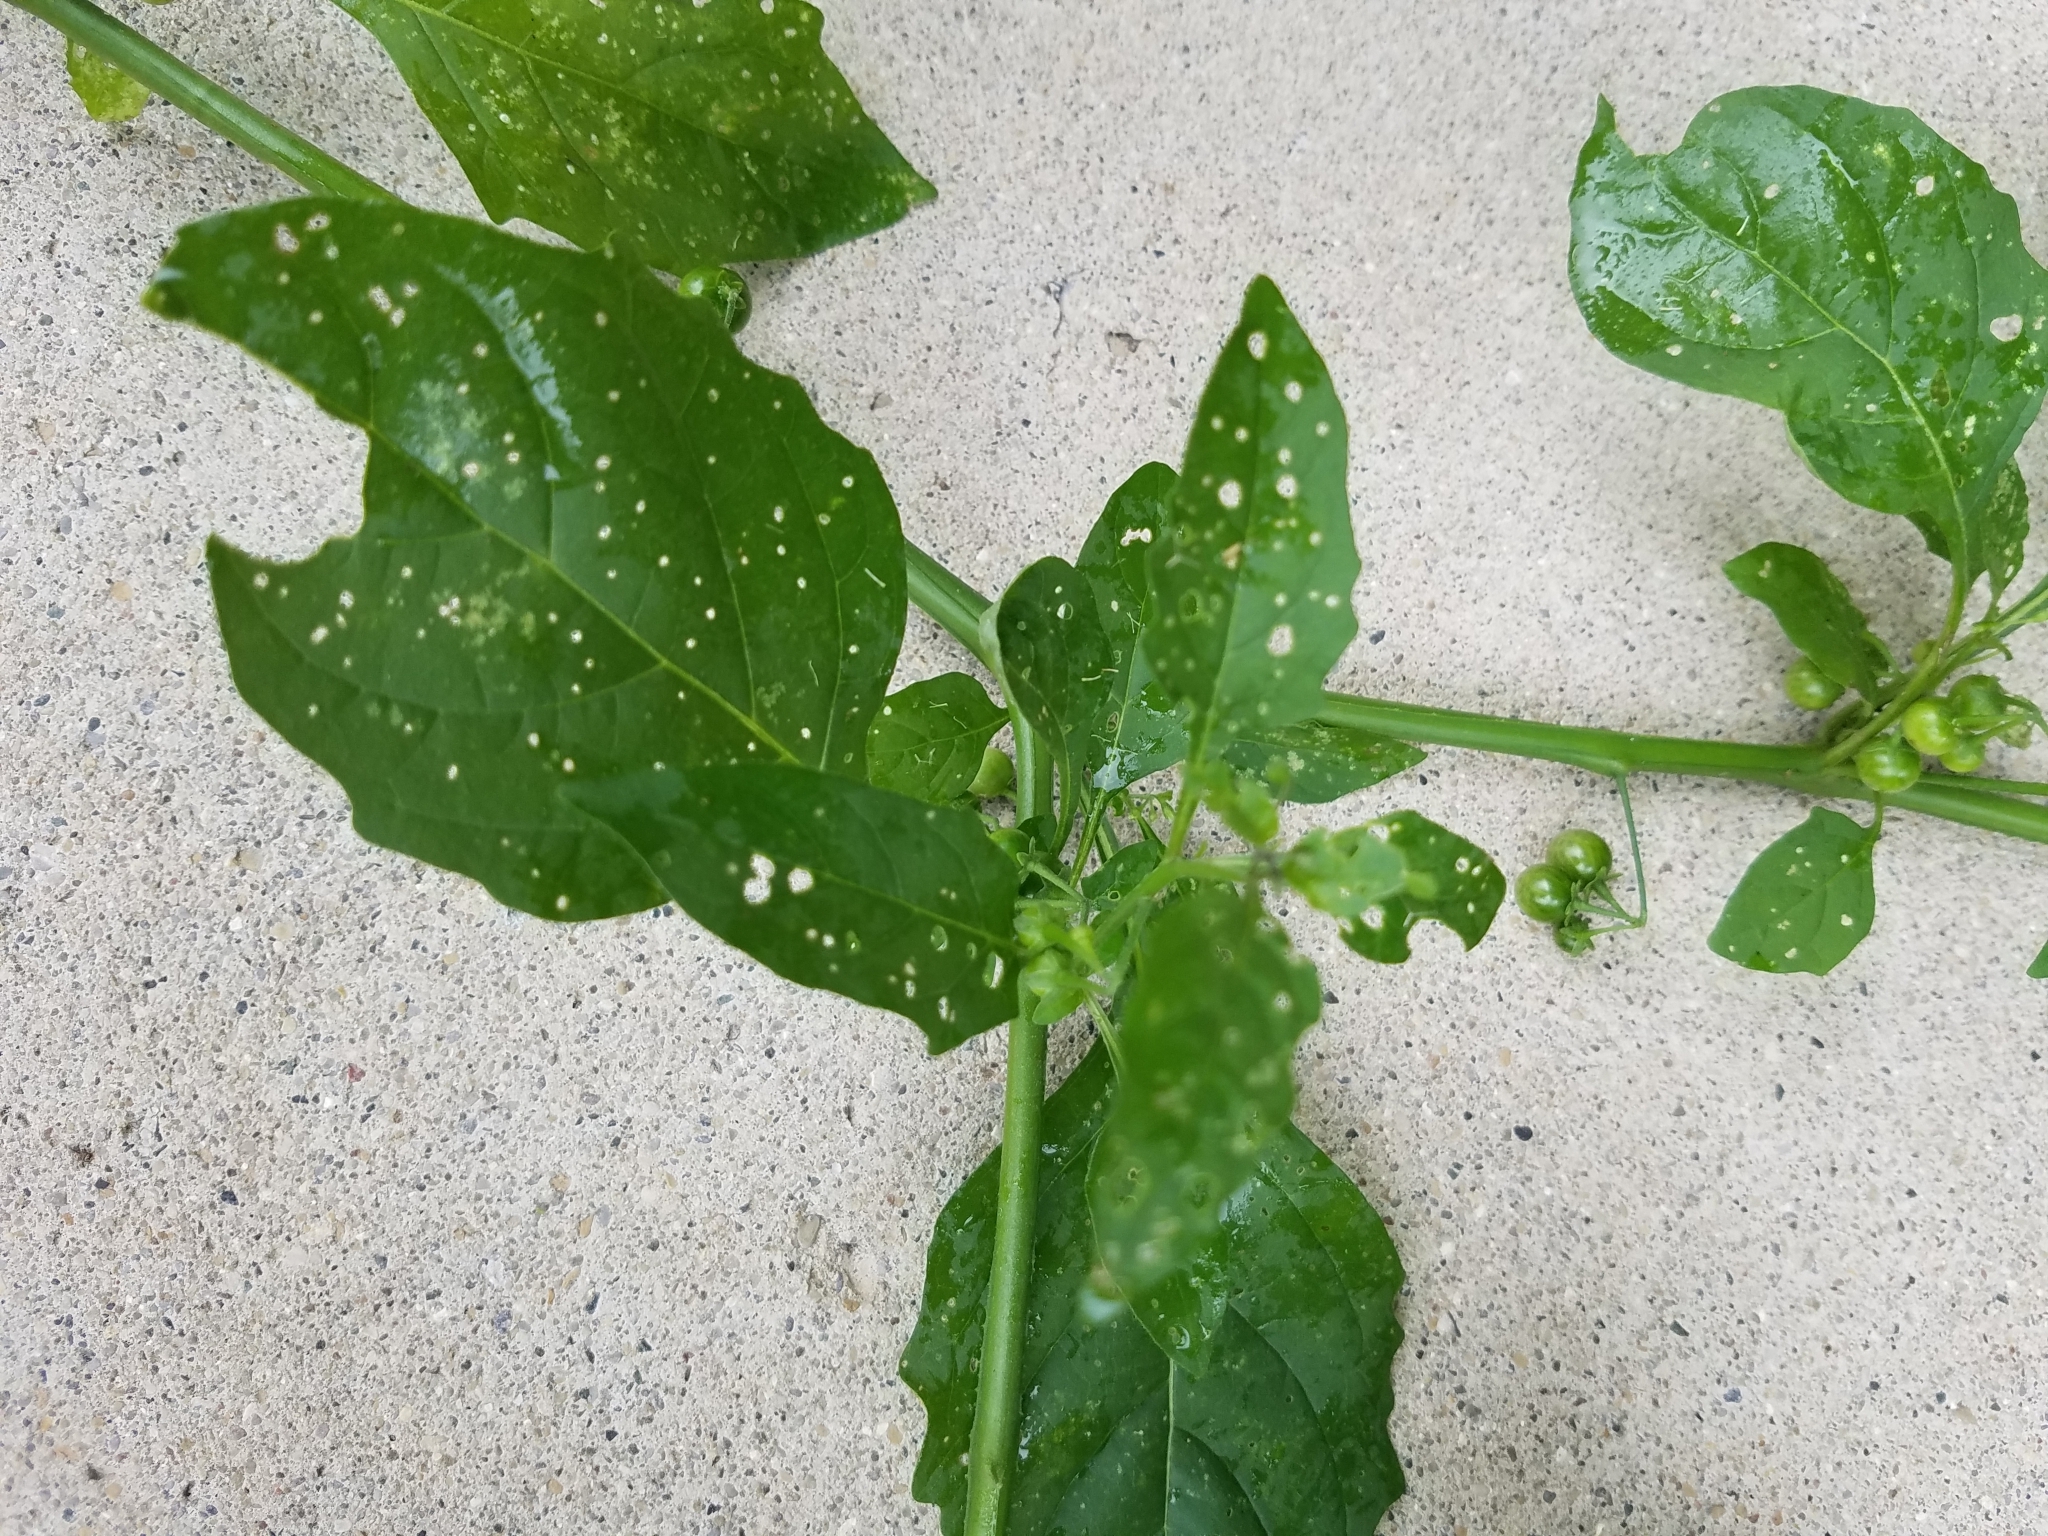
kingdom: Plantae
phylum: Tracheophyta
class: Magnoliopsida
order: Solanales
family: Solanaceae
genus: Solanum
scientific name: Solanum emulans
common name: Eastern black nightshade
